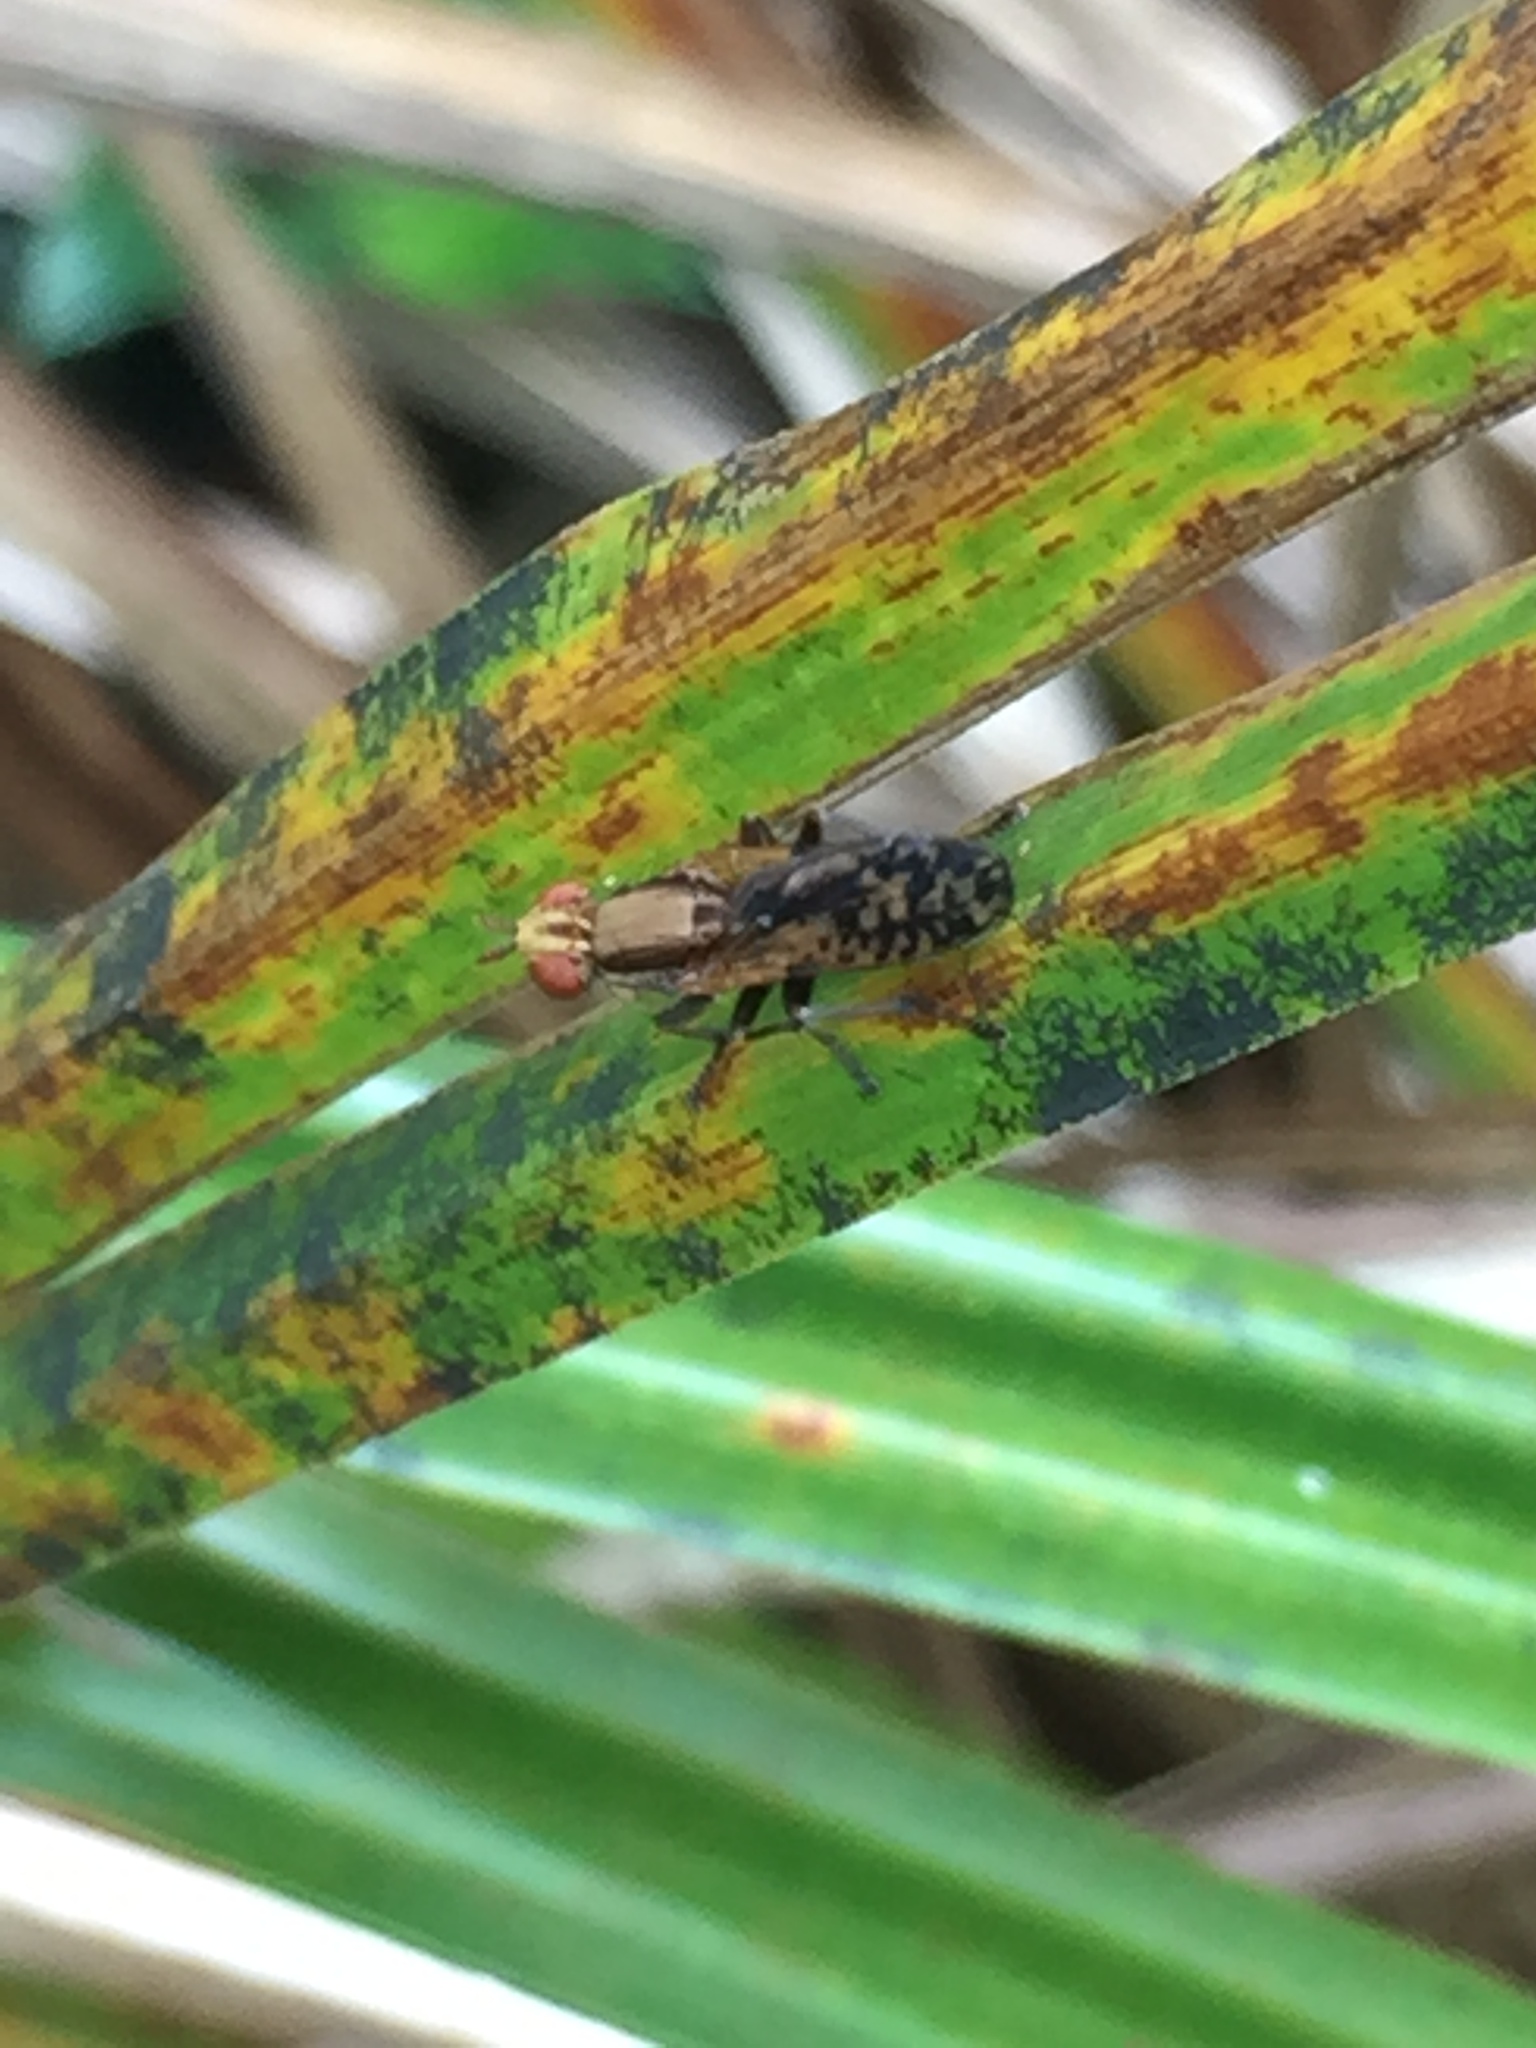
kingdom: Animalia
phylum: Arthropoda
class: Insecta
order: Diptera
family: Sciomyzidae
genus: Neolimnia
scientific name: Neolimnia tranquilla
